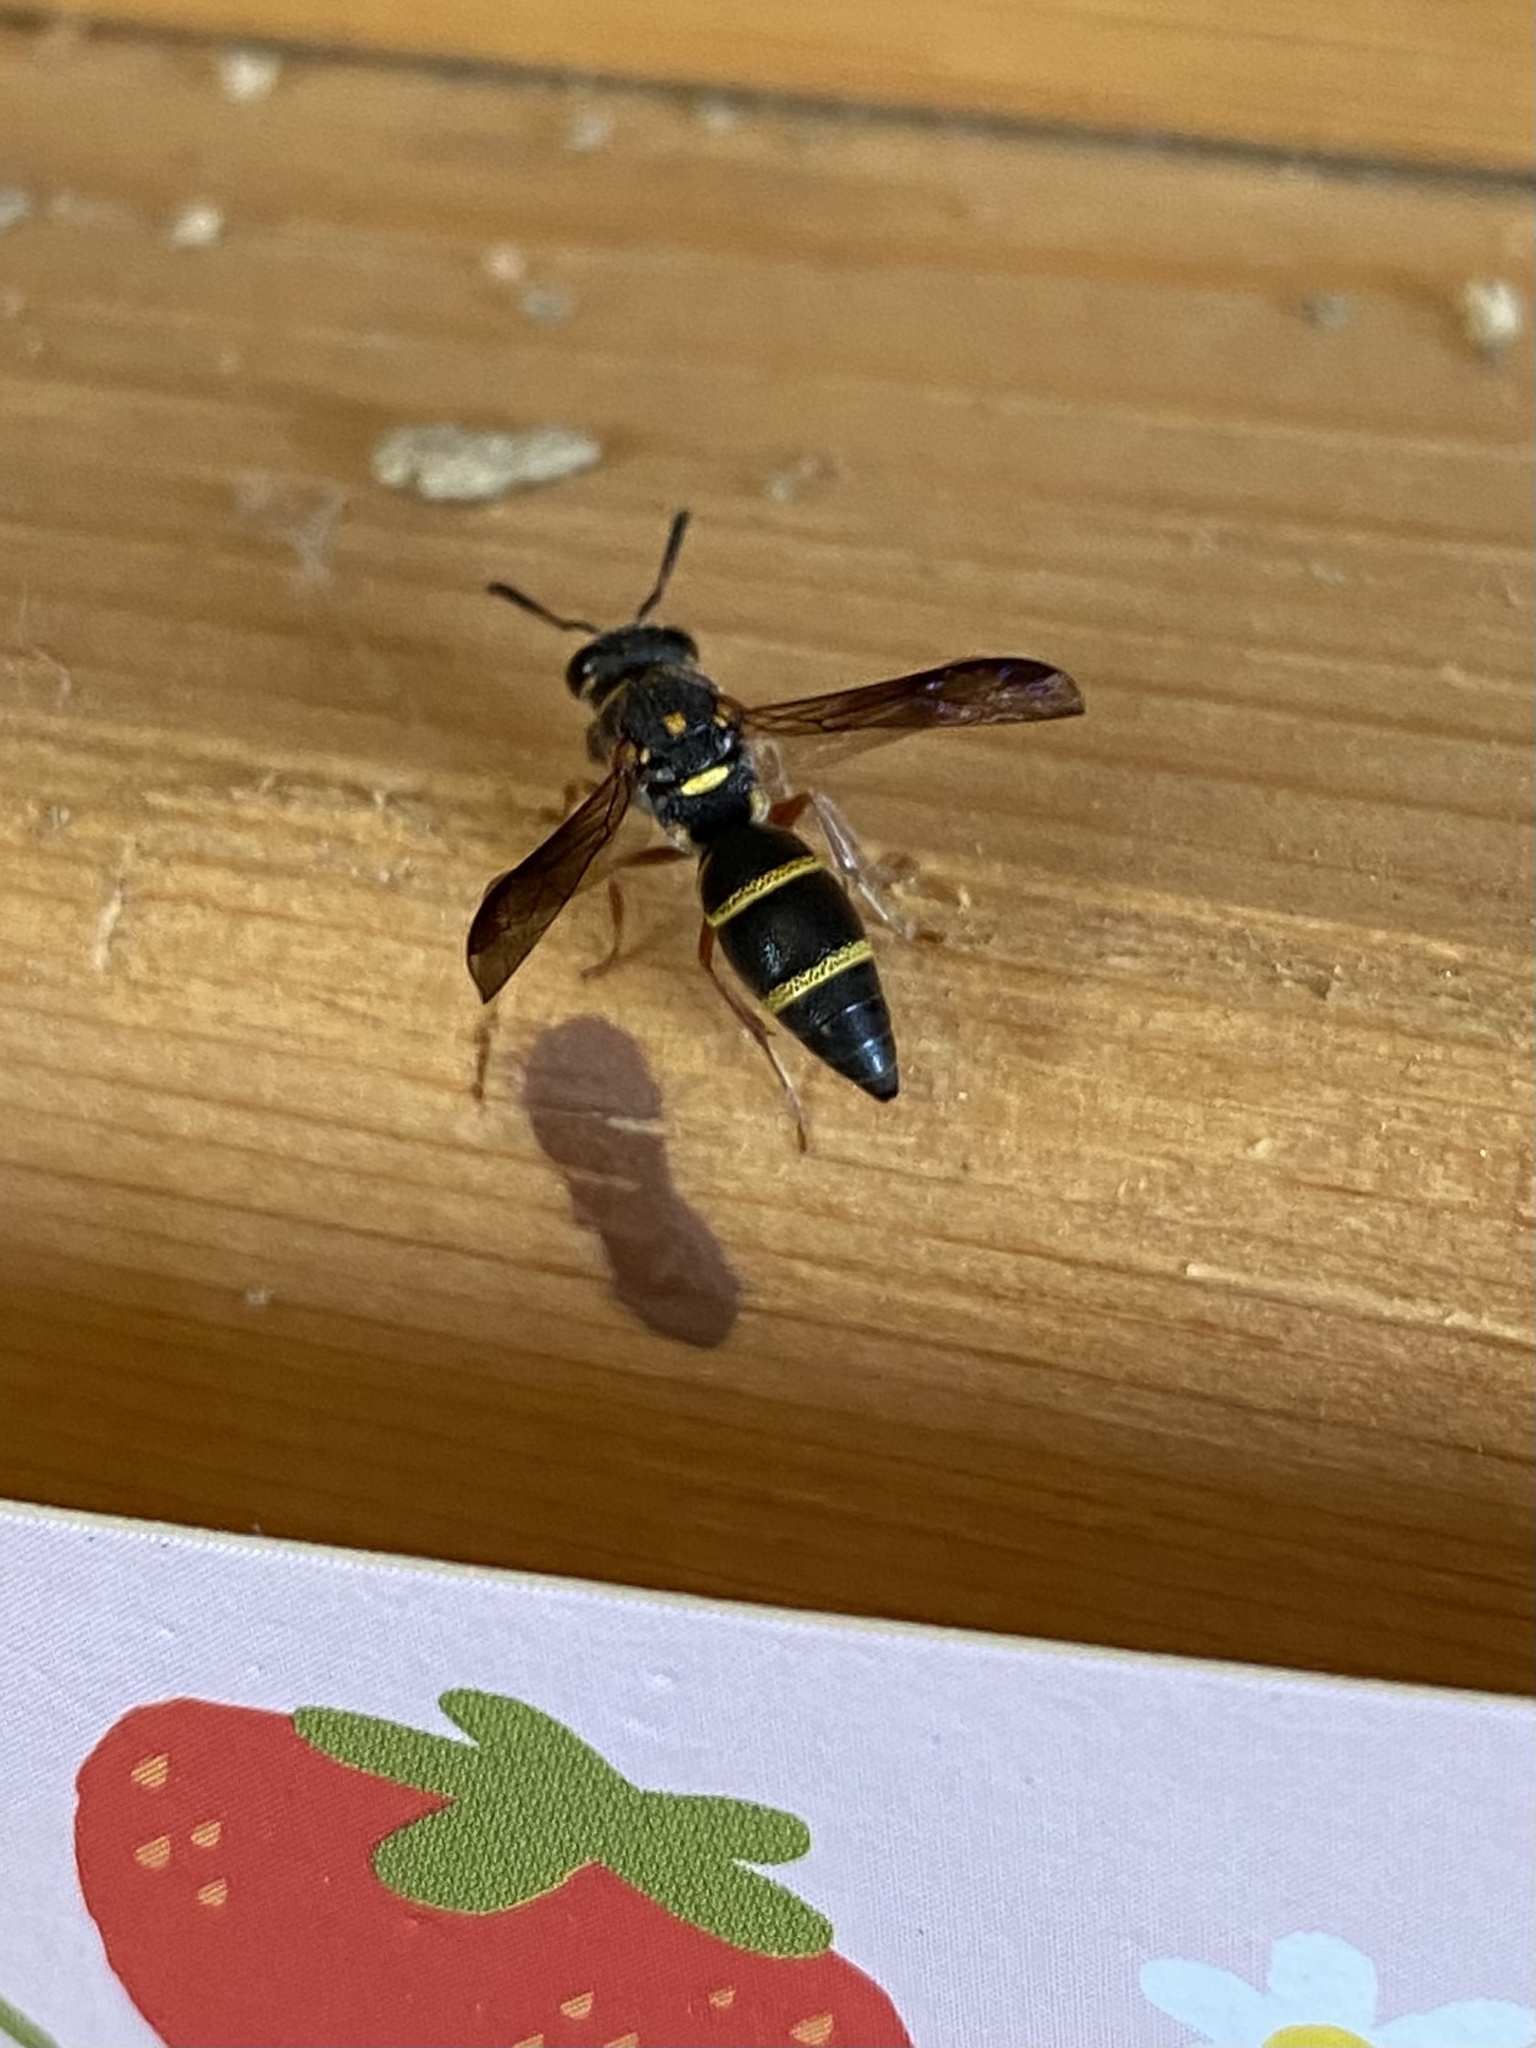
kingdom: Animalia
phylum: Arthropoda
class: Insecta
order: Hymenoptera
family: Eumenidae
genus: Parancistrocerus
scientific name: Parancistrocerus fulvipes
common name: Potter wasp
